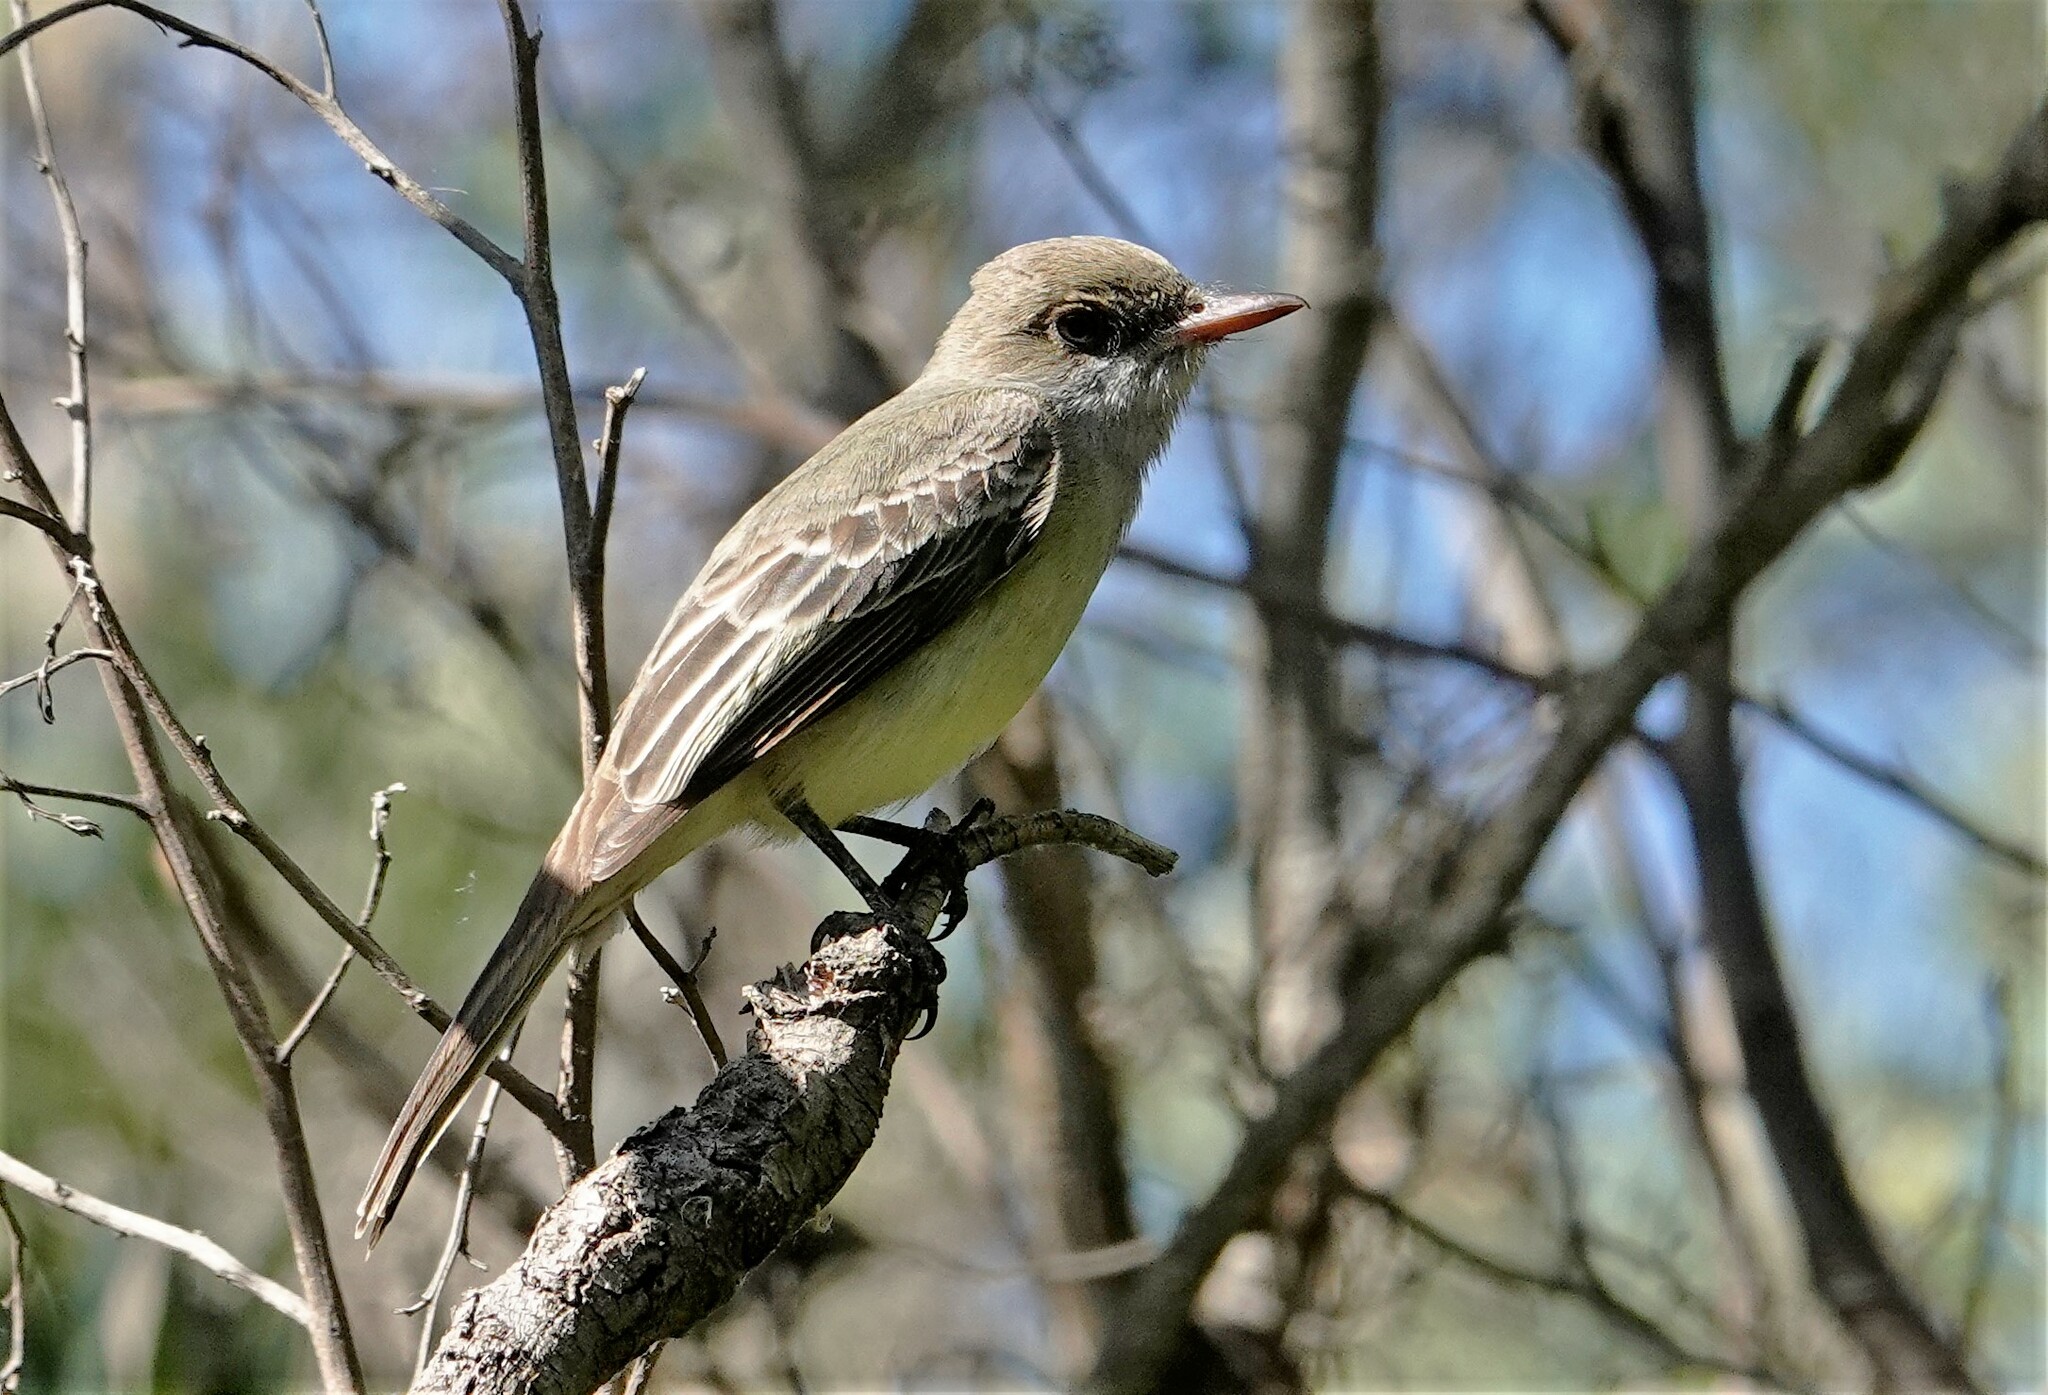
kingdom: Animalia
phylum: Chordata
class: Aves
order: Passeriformes
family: Tyrannidae
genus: Myiarchus
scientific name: Myiarchus swainsoni
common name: Swainson's flycatcher
